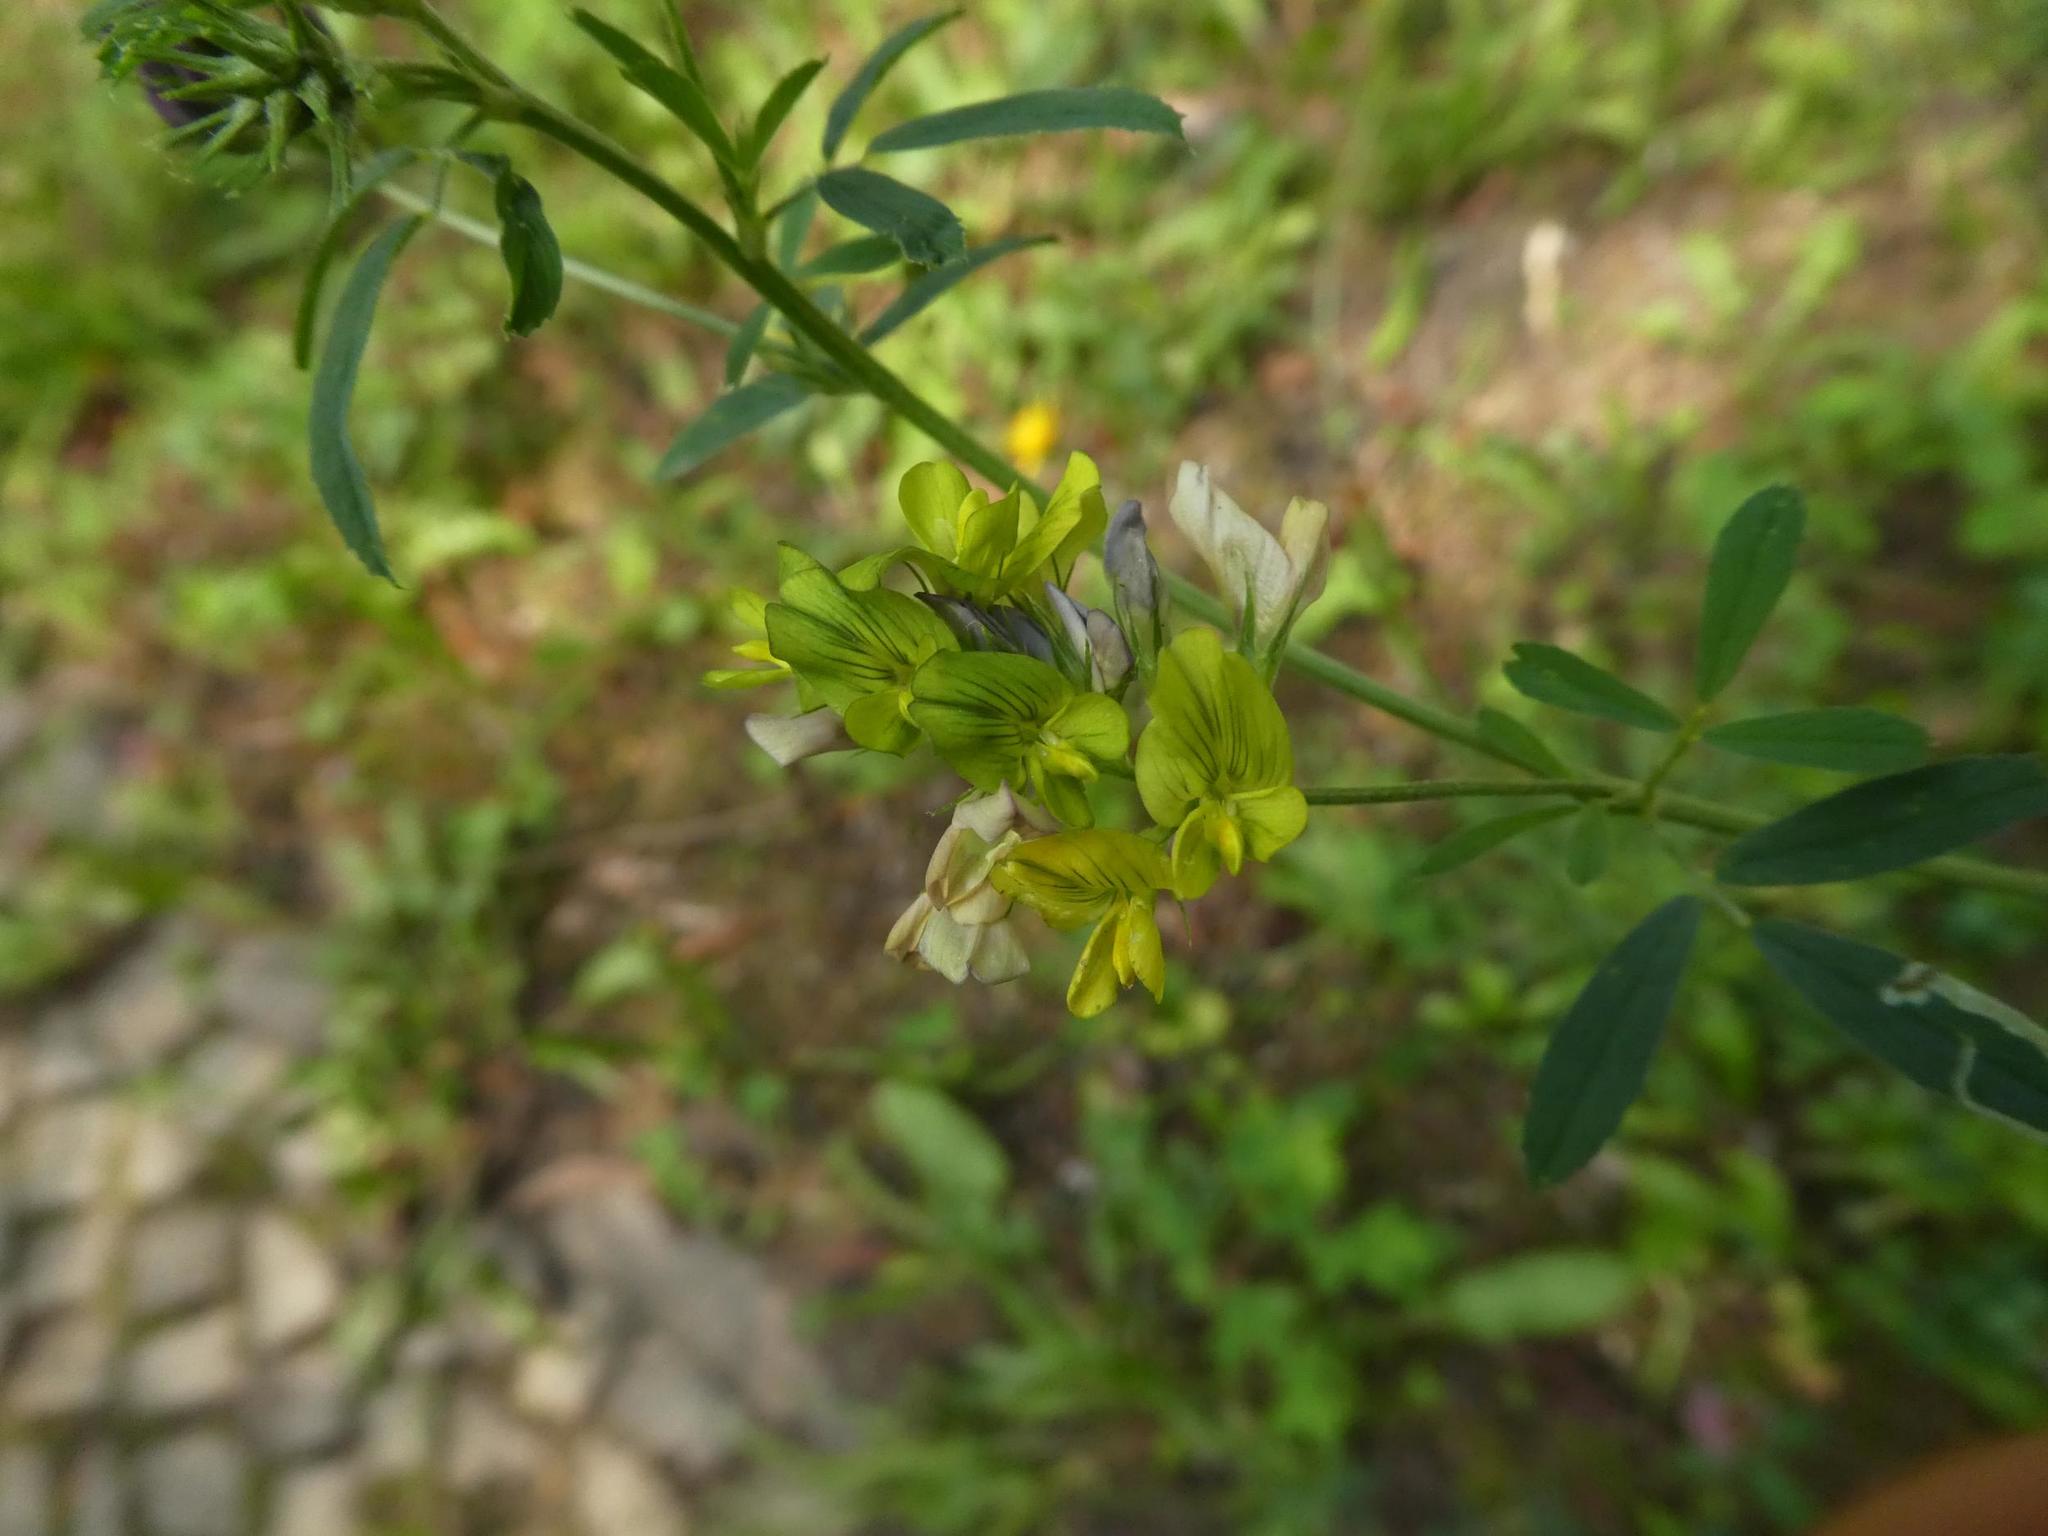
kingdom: Plantae
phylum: Tracheophyta
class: Magnoliopsida
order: Fabales
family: Fabaceae
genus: Medicago
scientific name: Medicago varia
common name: Sand lucerne
